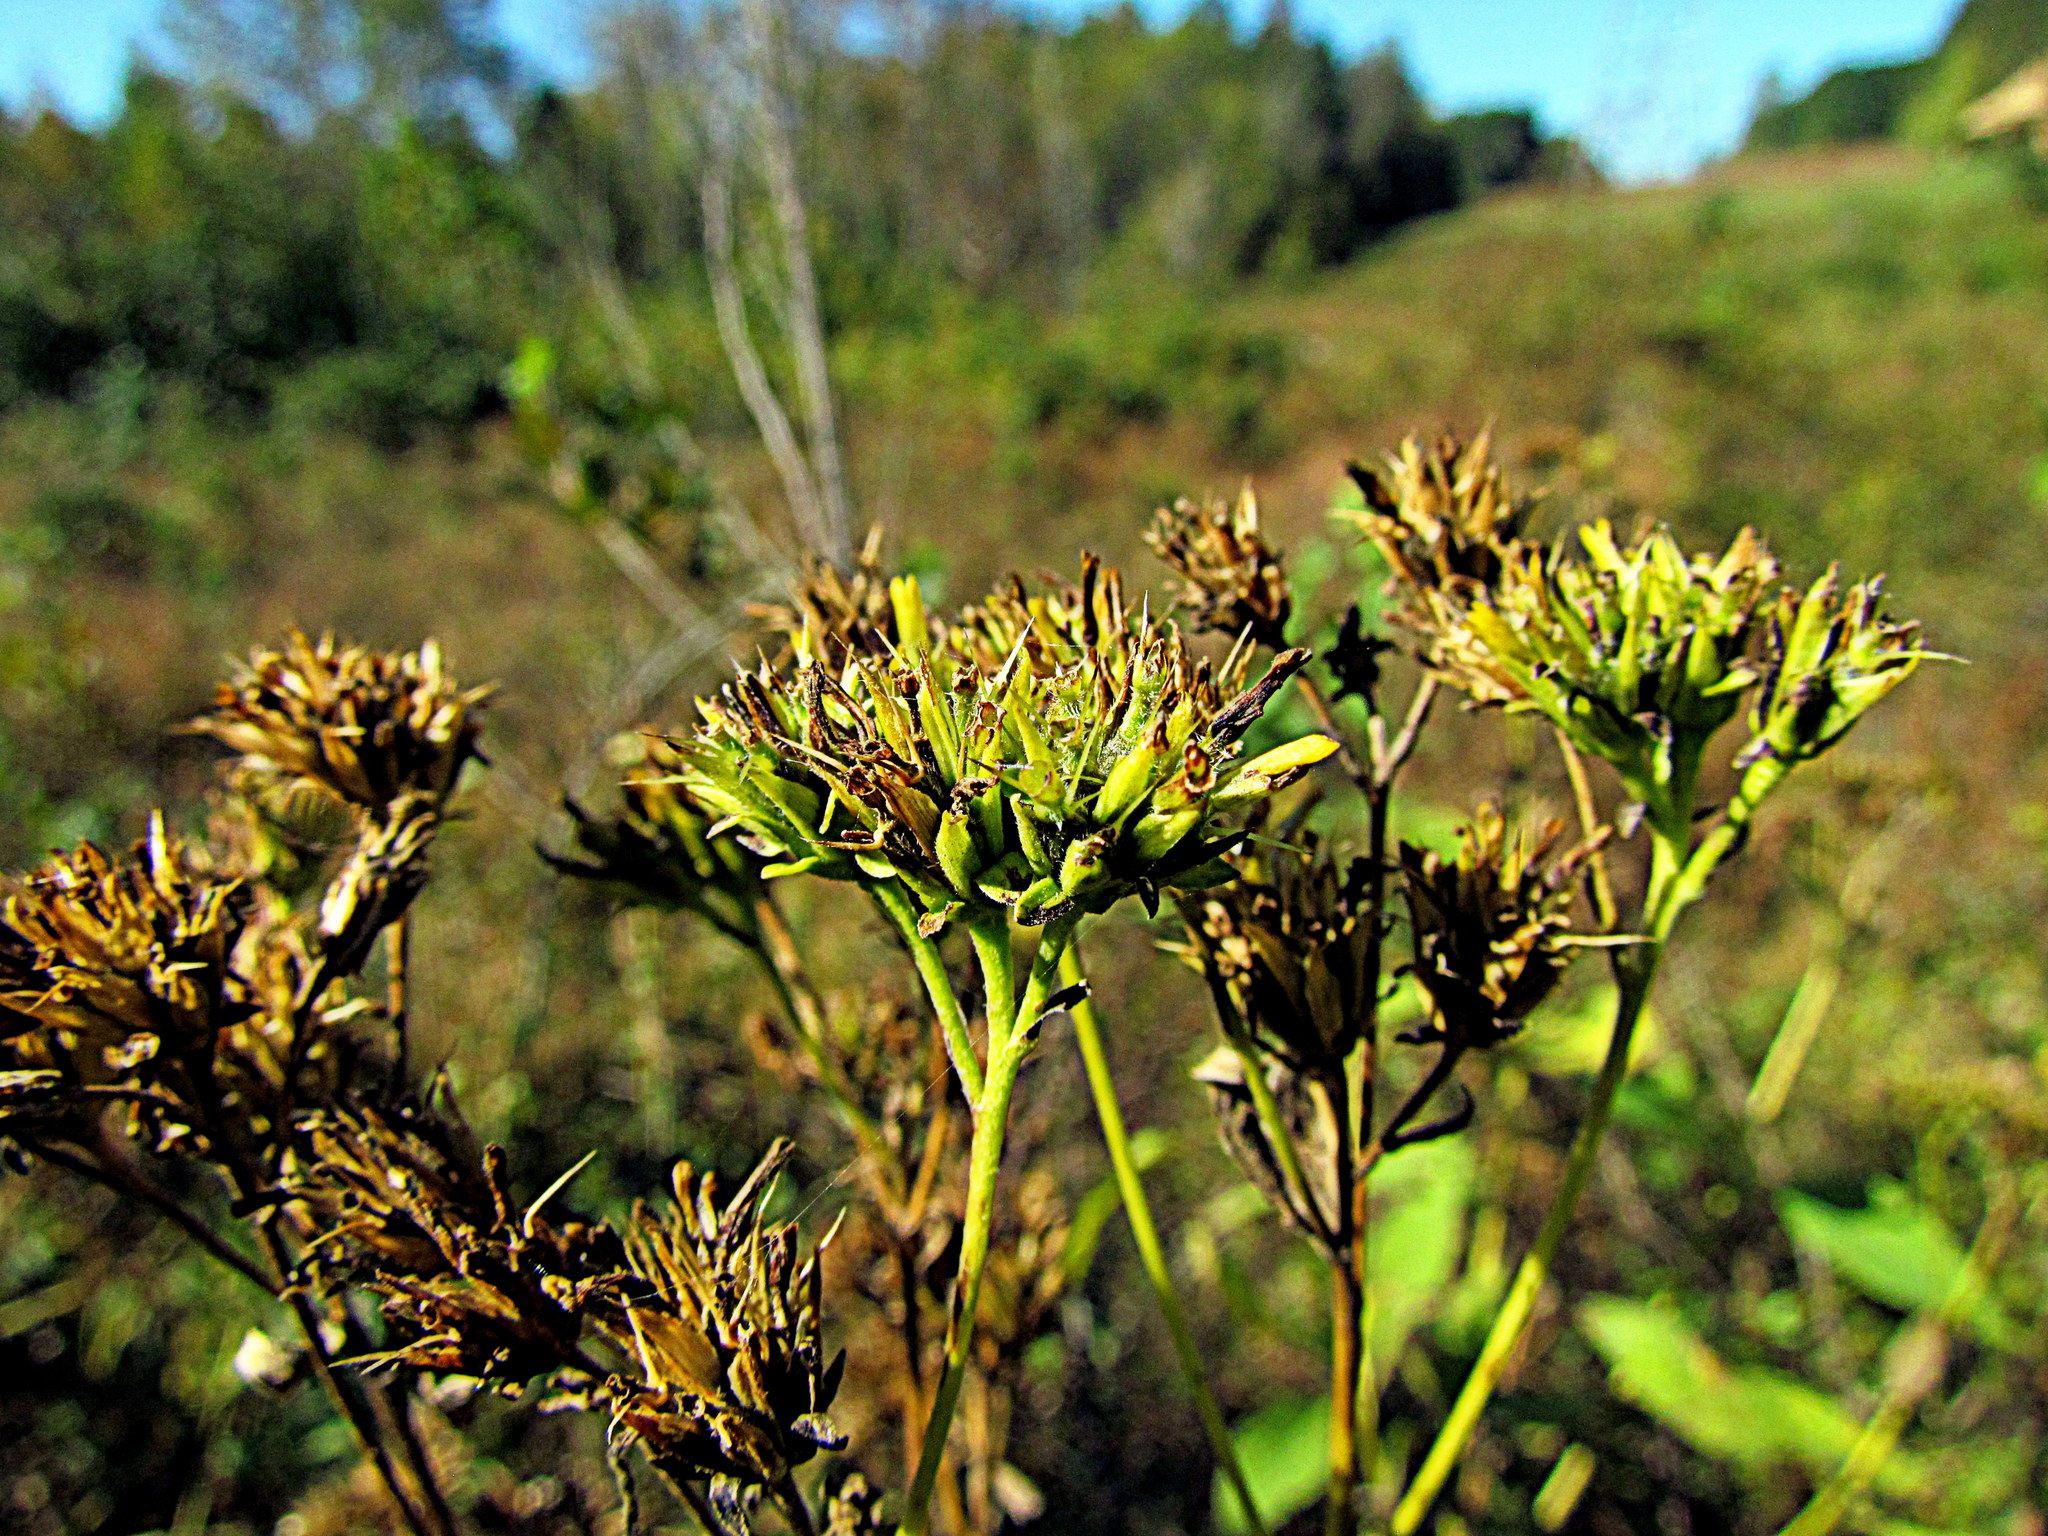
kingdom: Plantae
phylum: Tracheophyta
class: Magnoliopsida
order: Asterales
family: Asteraceae
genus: Verbesina
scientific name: Verbesina occidentalis
